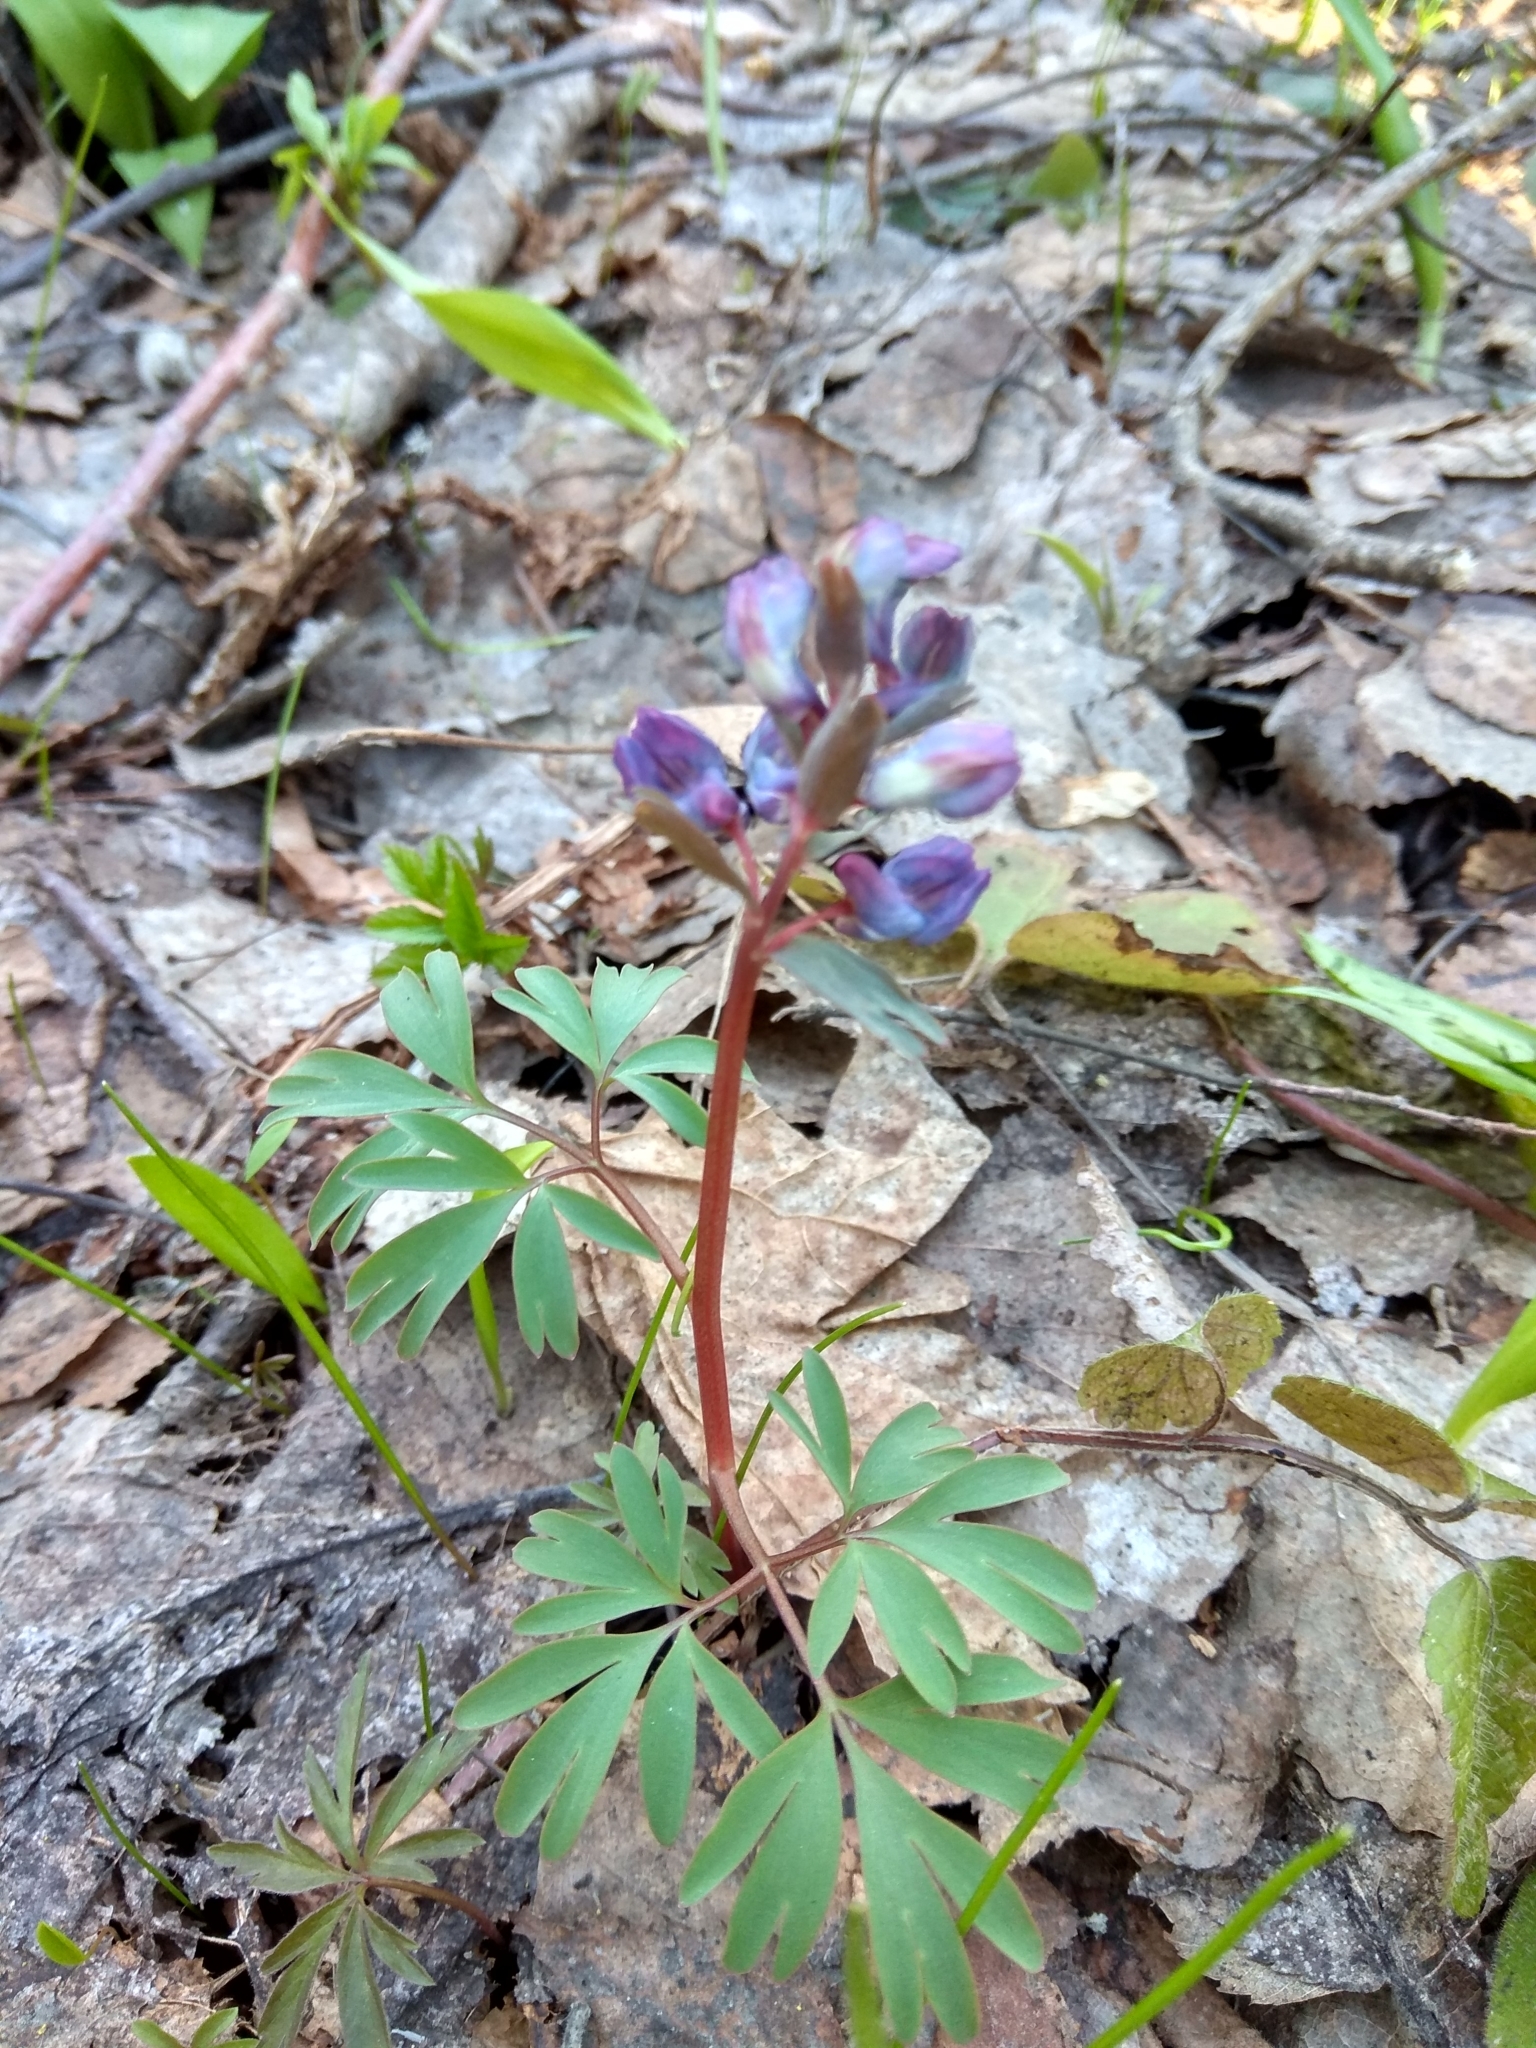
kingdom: Plantae
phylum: Tracheophyta
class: Magnoliopsida
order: Ranunculales
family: Papaveraceae
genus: Corydalis
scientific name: Corydalis solida
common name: Bird-in-a-bush
